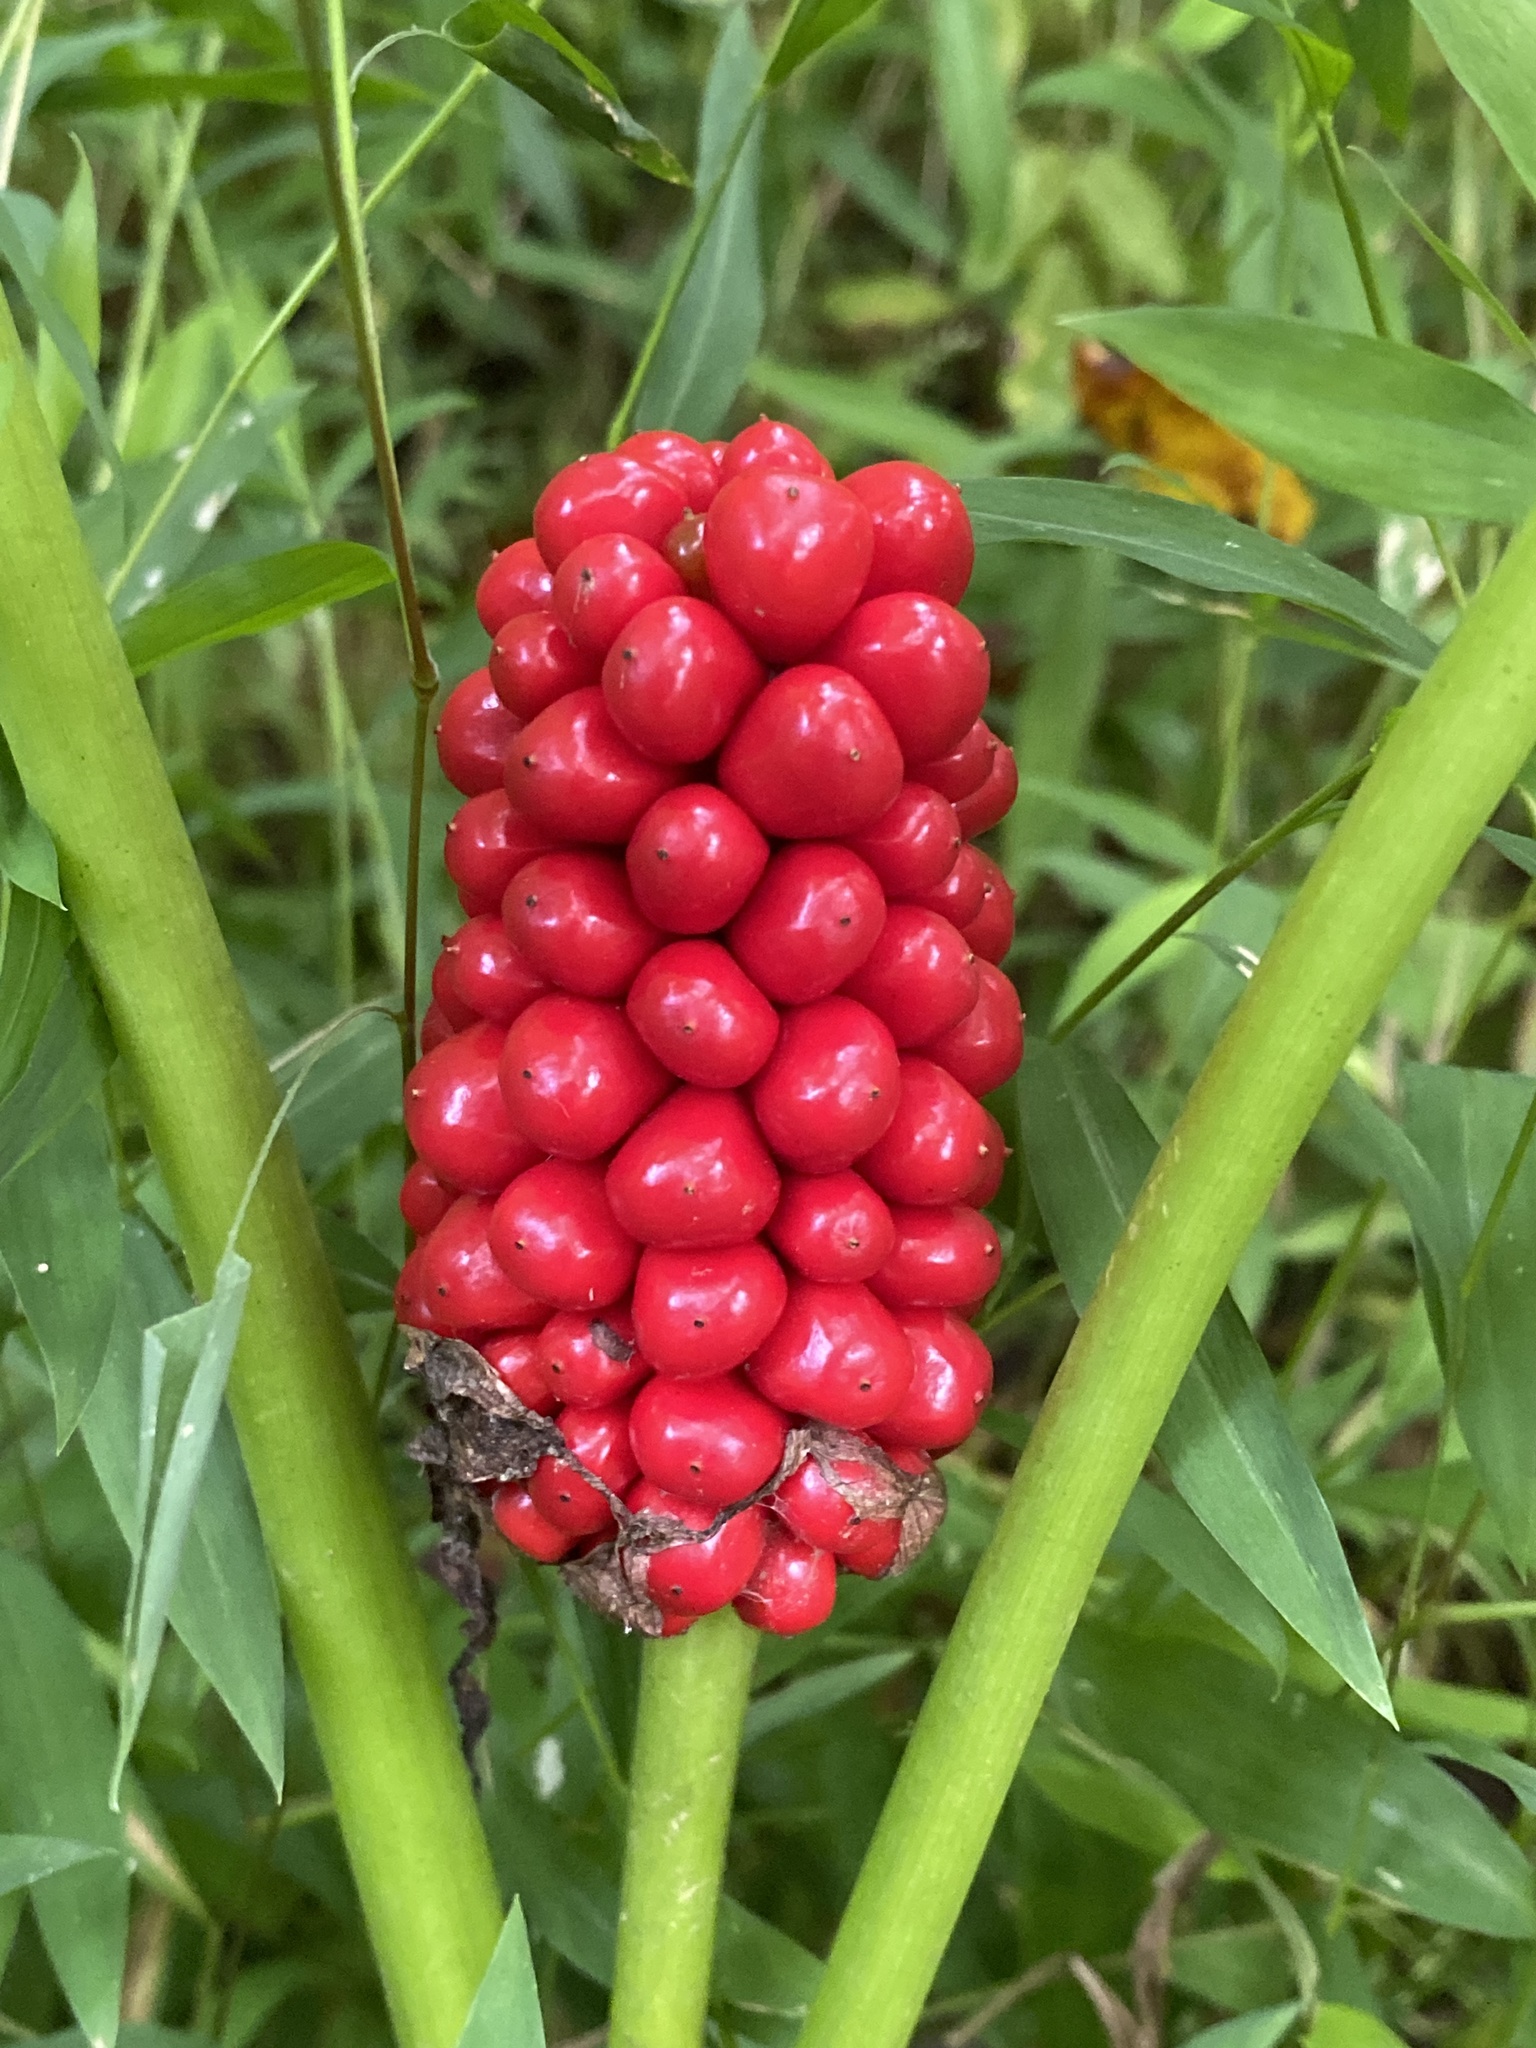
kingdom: Plantae
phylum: Tracheophyta
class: Liliopsida
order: Alismatales
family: Araceae
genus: Arisaema
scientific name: Arisaema triphyllum
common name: Jack-in-the-pulpit
